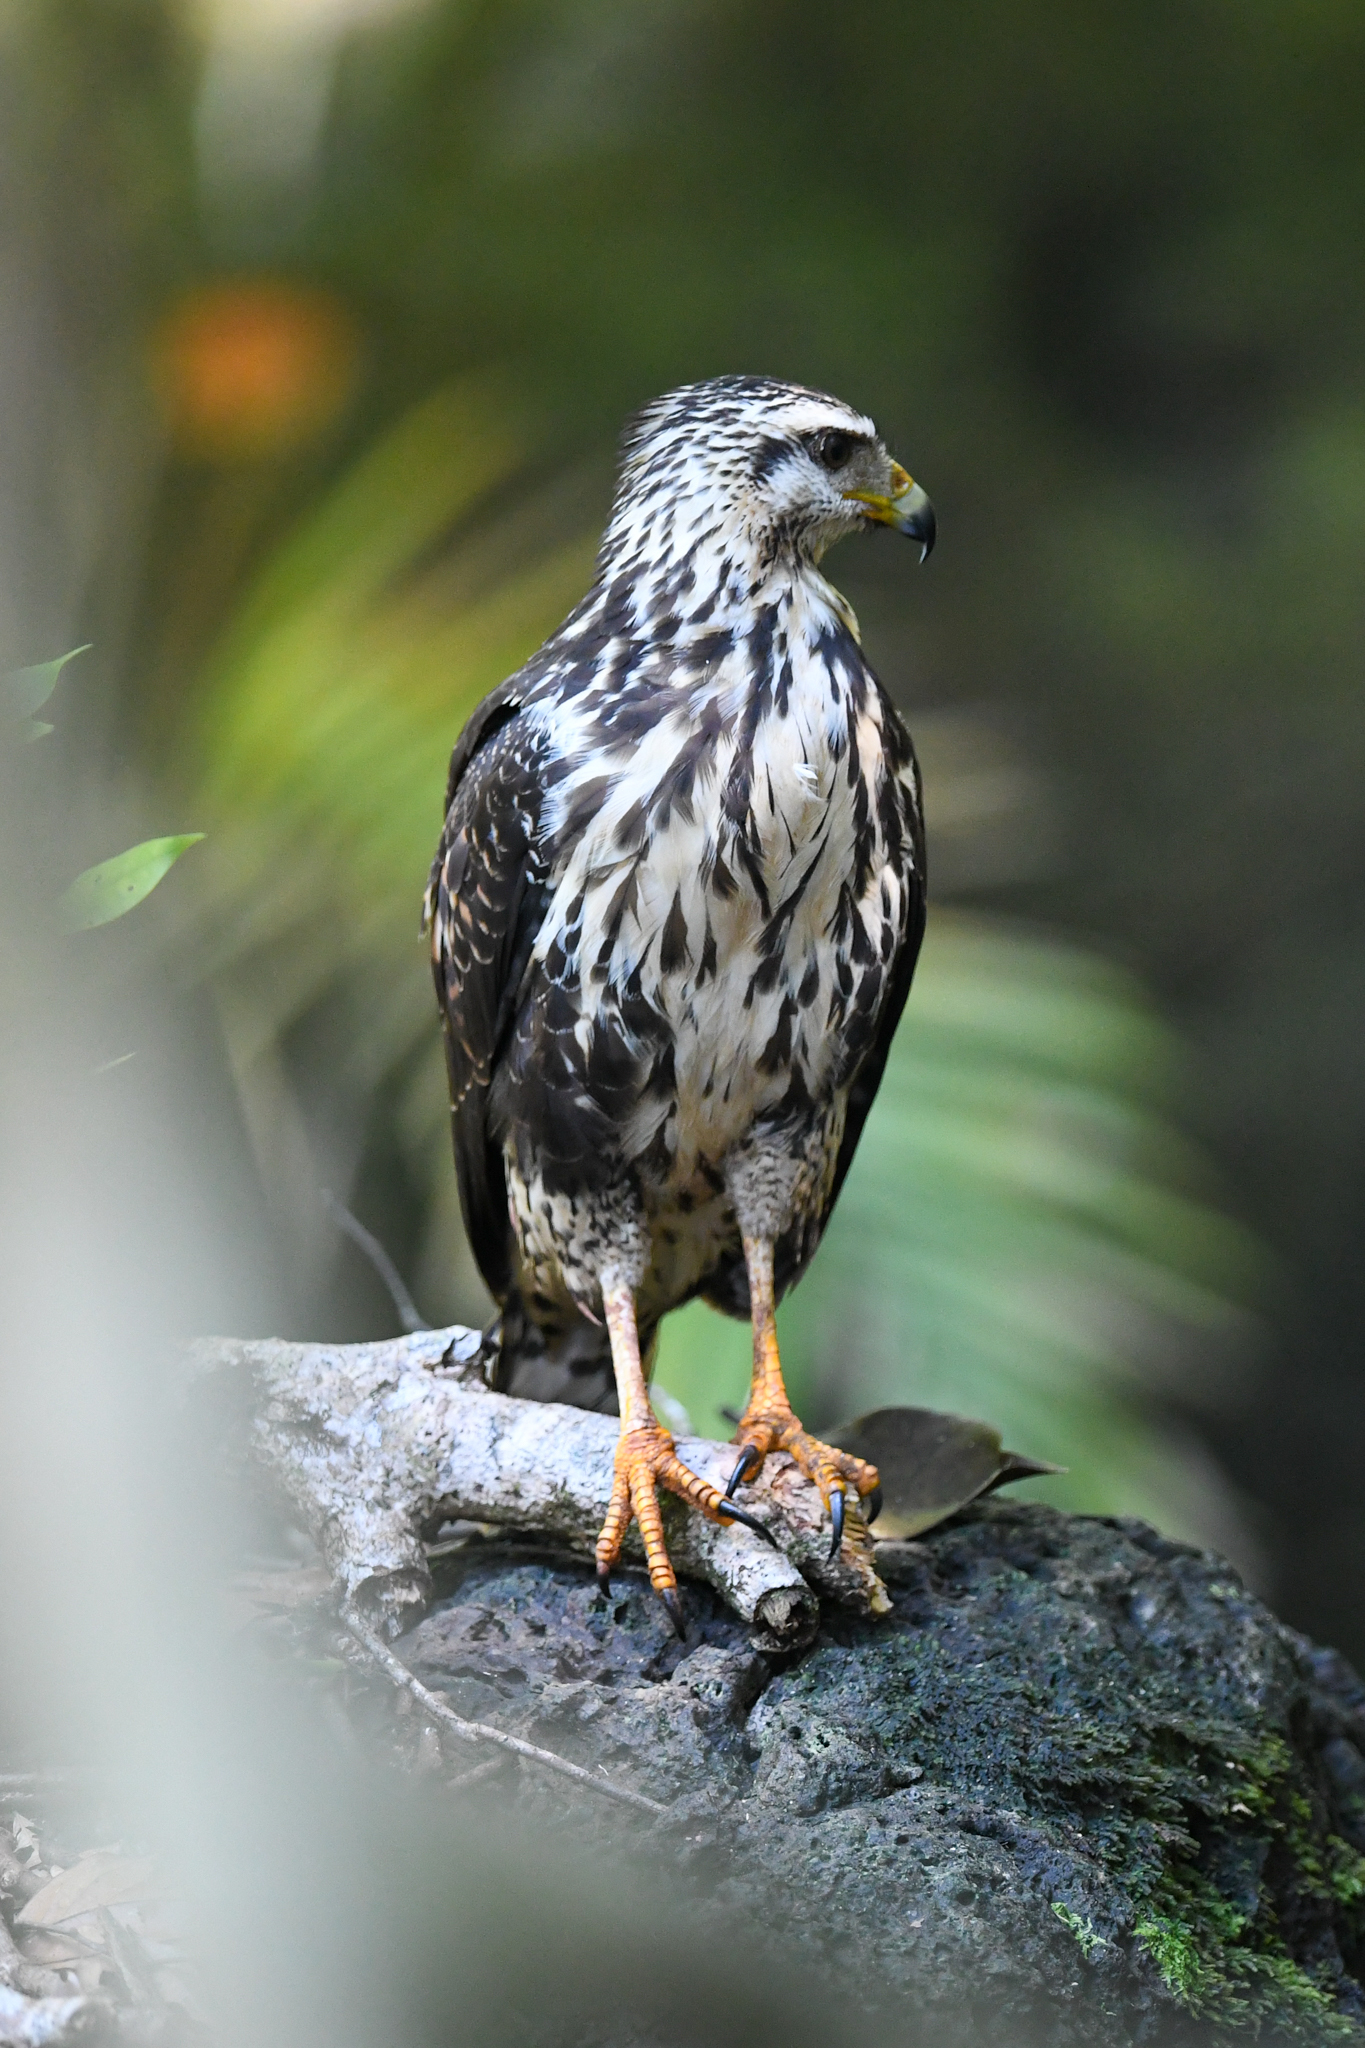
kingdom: Animalia
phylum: Chordata
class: Aves
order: Accipitriformes
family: Accipitridae
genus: Buteogallus
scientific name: Buteogallus anthracinus
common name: Common black hawk
